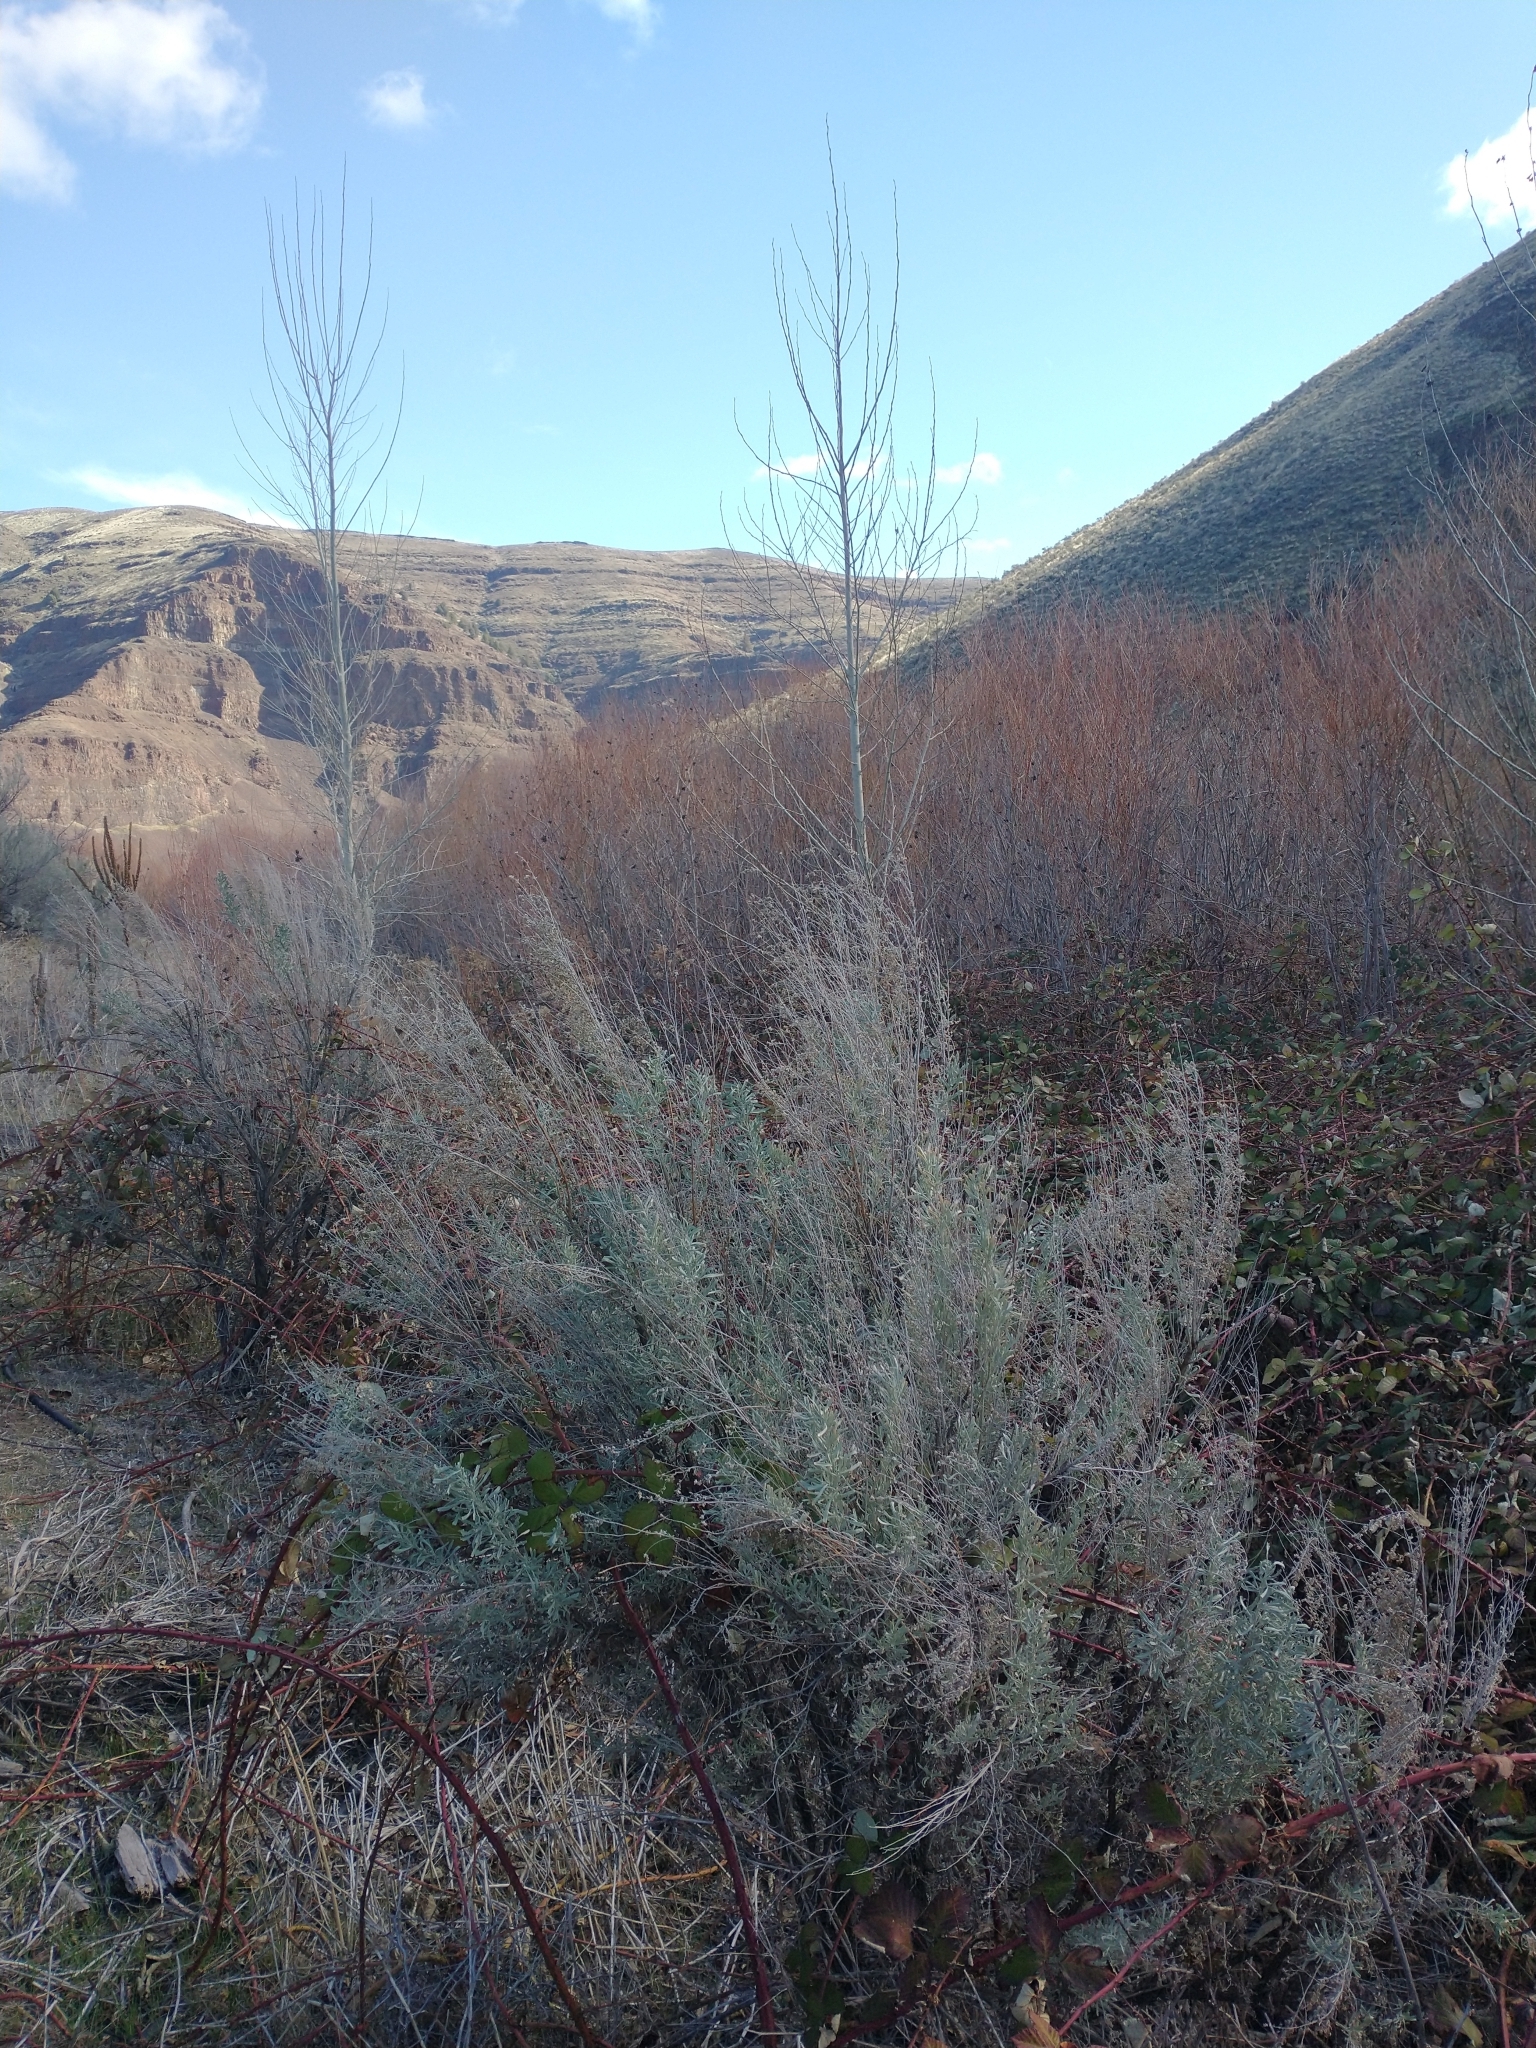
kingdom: Plantae
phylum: Tracheophyta
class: Magnoliopsida
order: Asterales
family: Asteraceae
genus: Artemisia
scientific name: Artemisia tridentata
